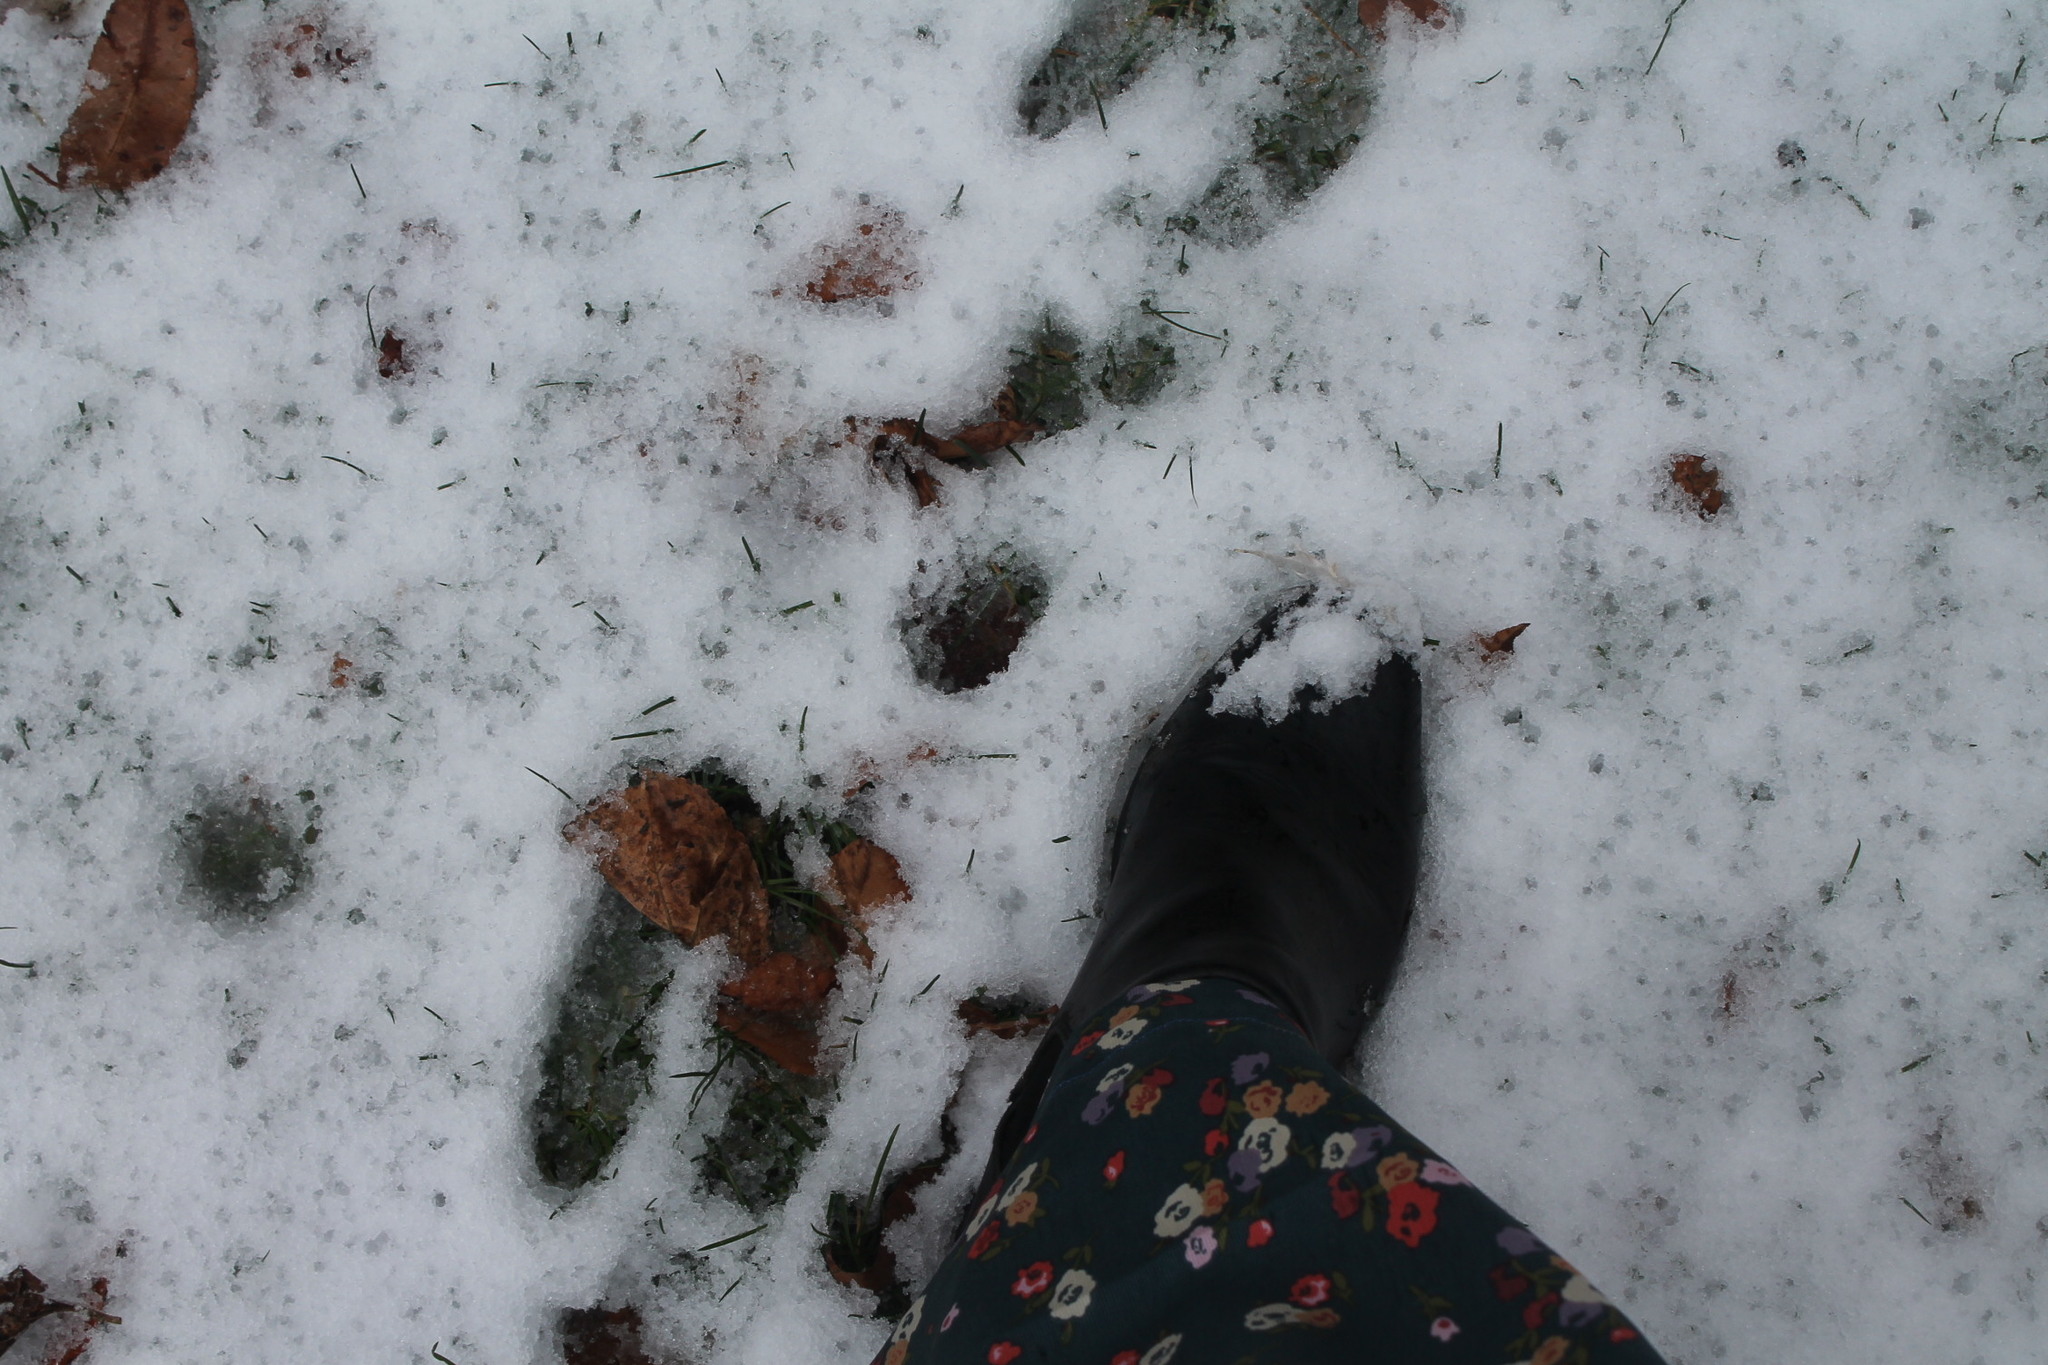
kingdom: Animalia
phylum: Chordata
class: Mammalia
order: Lagomorpha
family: Leporidae
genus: Sylvilagus
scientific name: Sylvilagus floridanus
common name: Eastern cottontail
